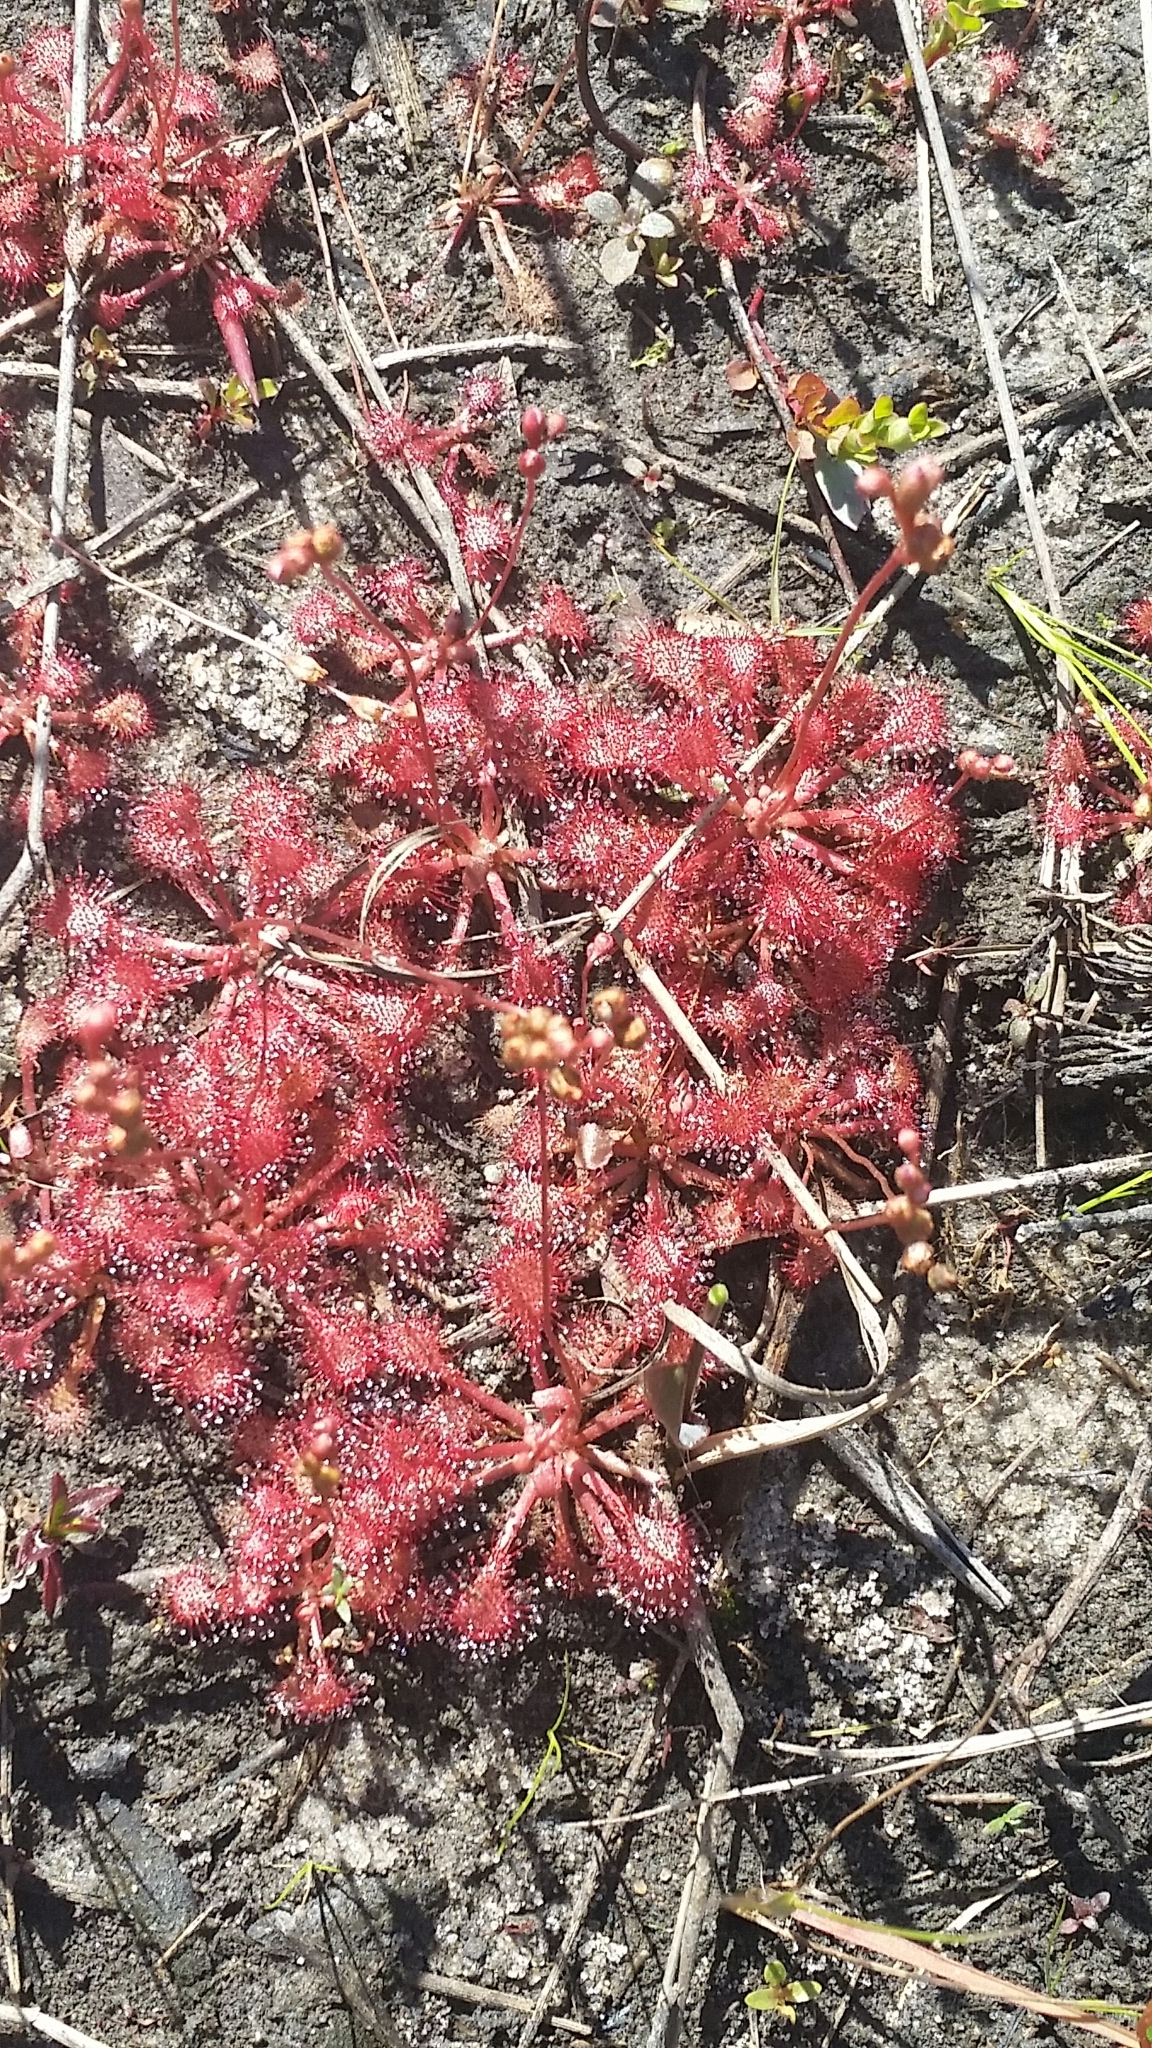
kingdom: Plantae
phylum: Tracheophyta
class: Magnoliopsida
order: Caryophyllales
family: Droseraceae
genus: Drosera
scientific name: Drosera capillaris
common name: Pink sundew
